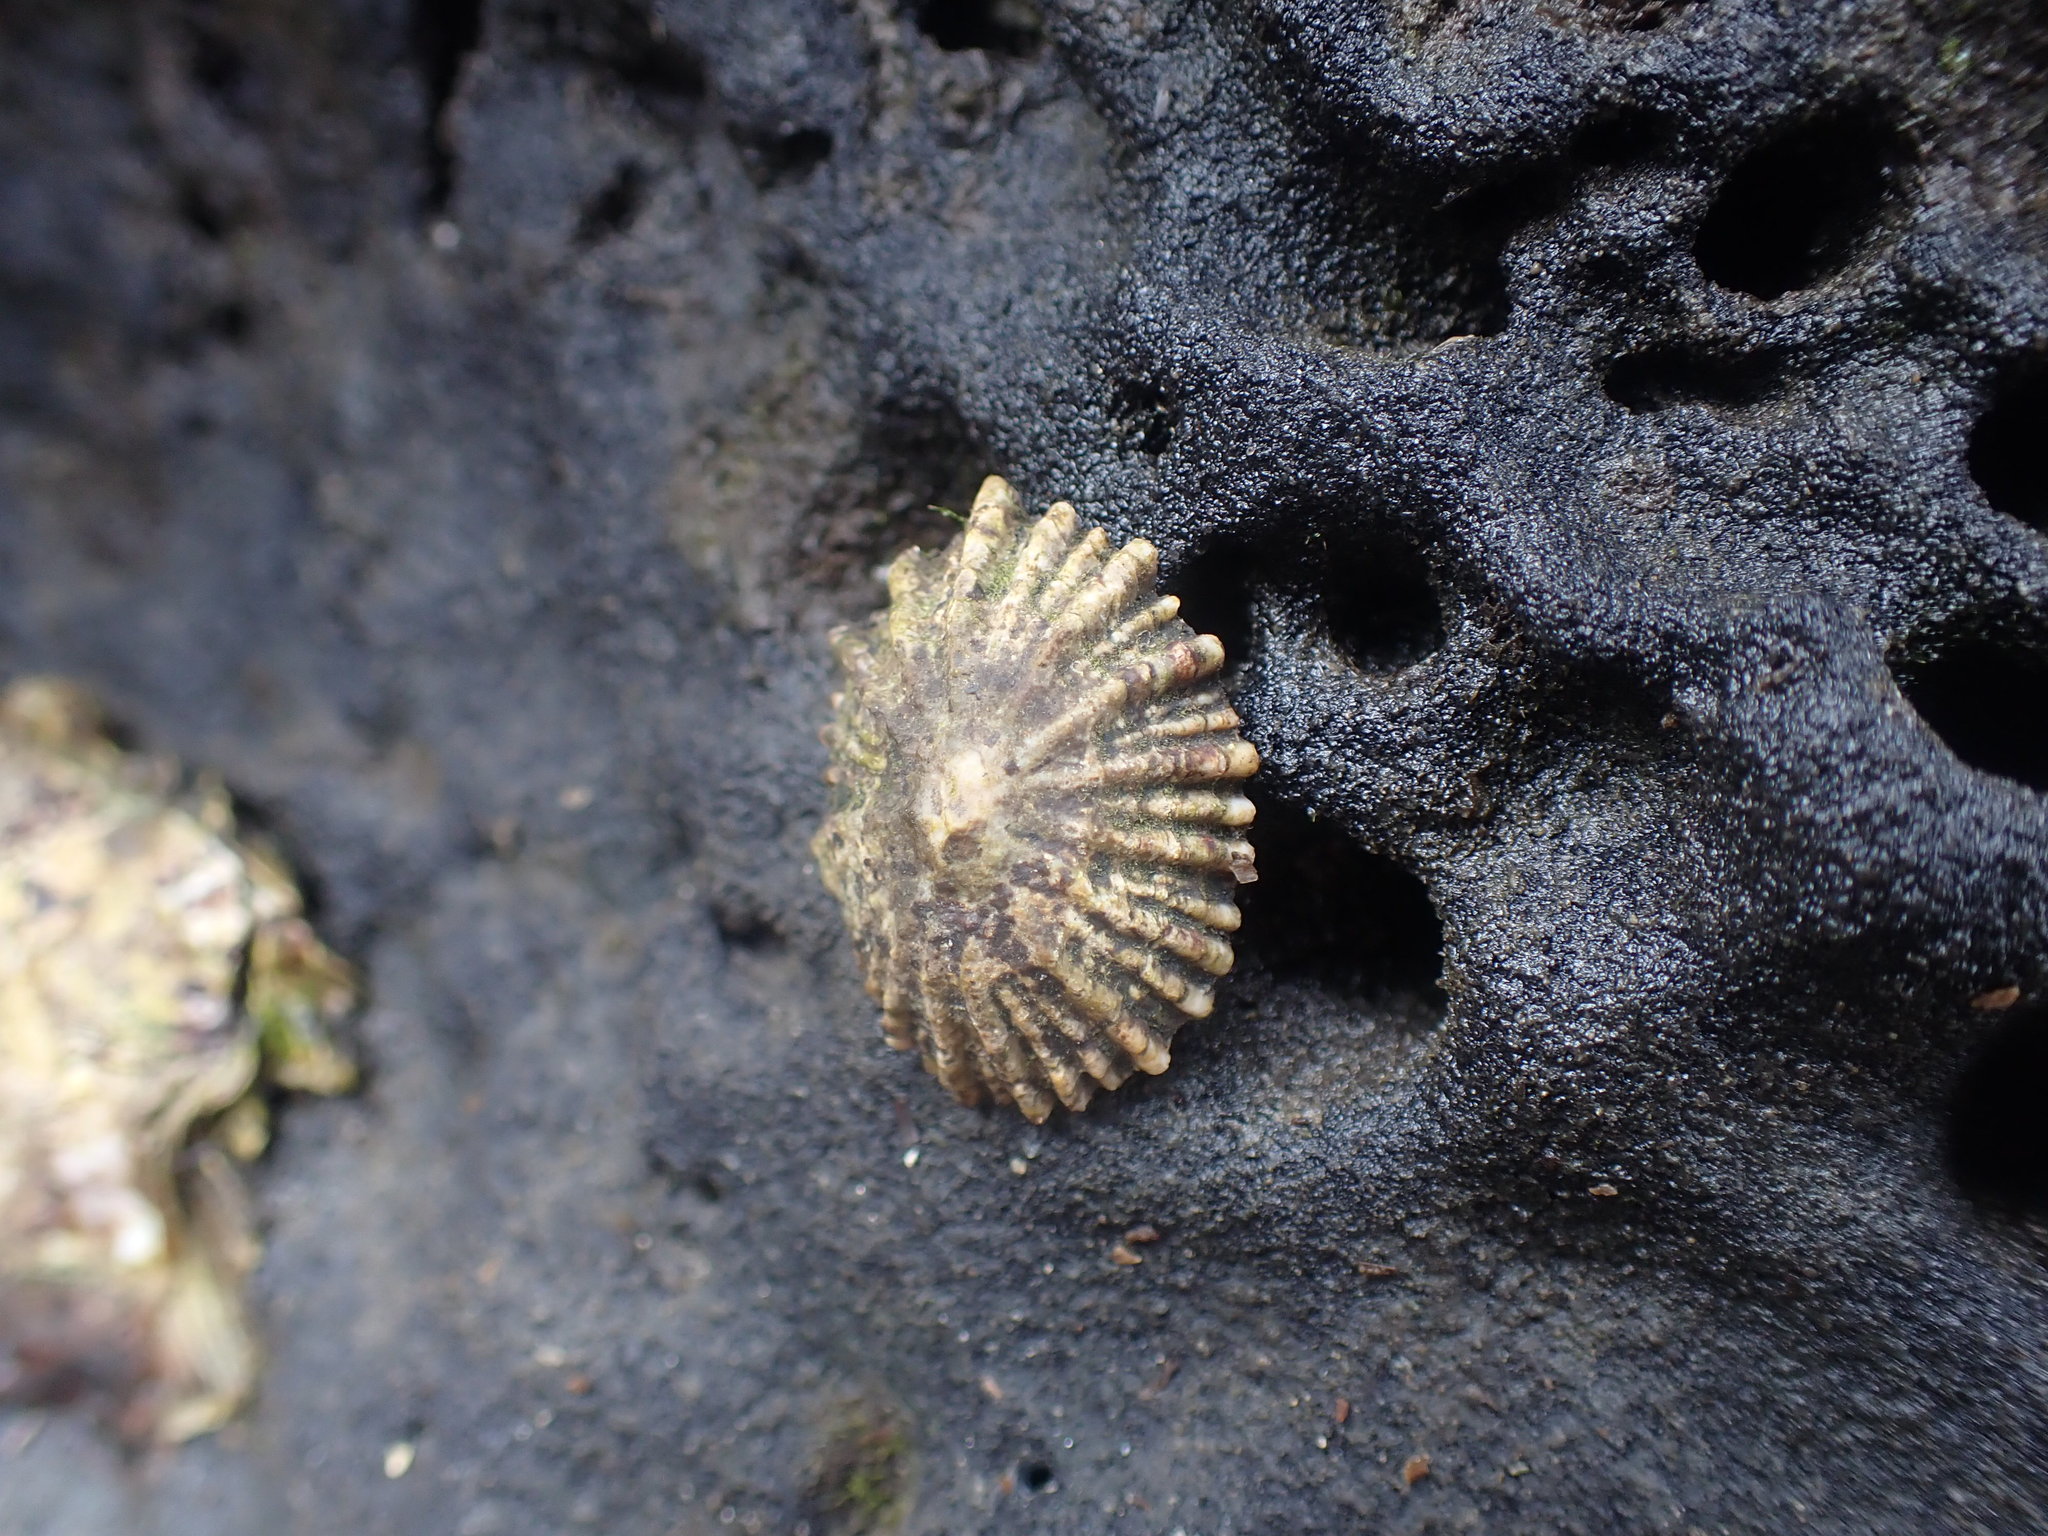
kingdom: Animalia
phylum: Mollusca
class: Gastropoda
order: Siphonariida
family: Siphonariidae
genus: Siphonaria
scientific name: Siphonaria australis
